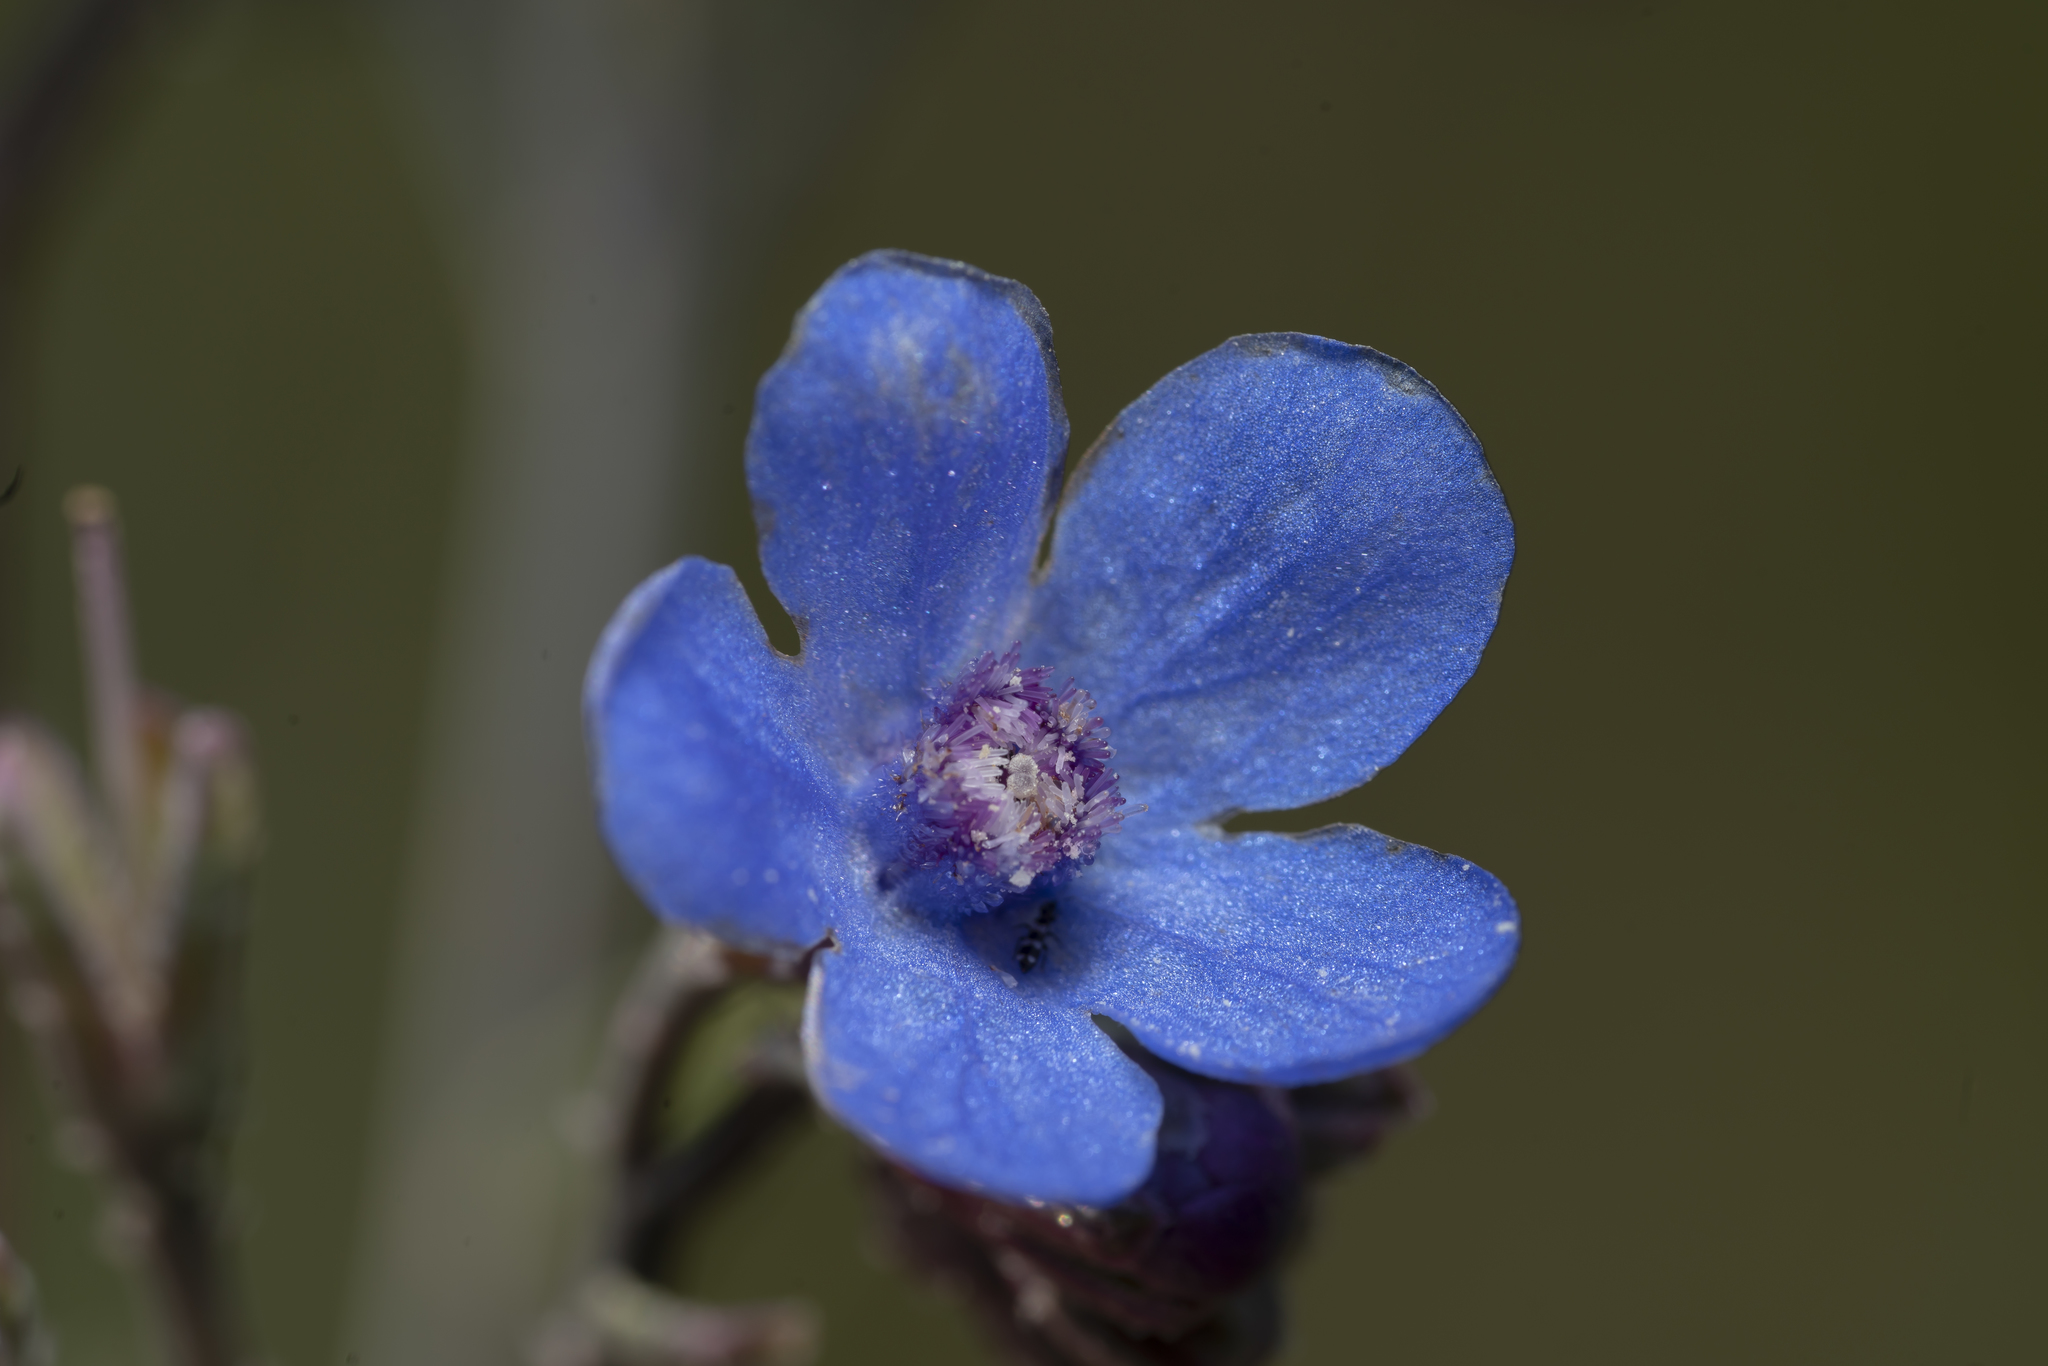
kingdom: Plantae
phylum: Tracheophyta
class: Magnoliopsida
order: Boraginales
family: Boraginaceae
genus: Anchusa
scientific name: Anchusa strigosa
